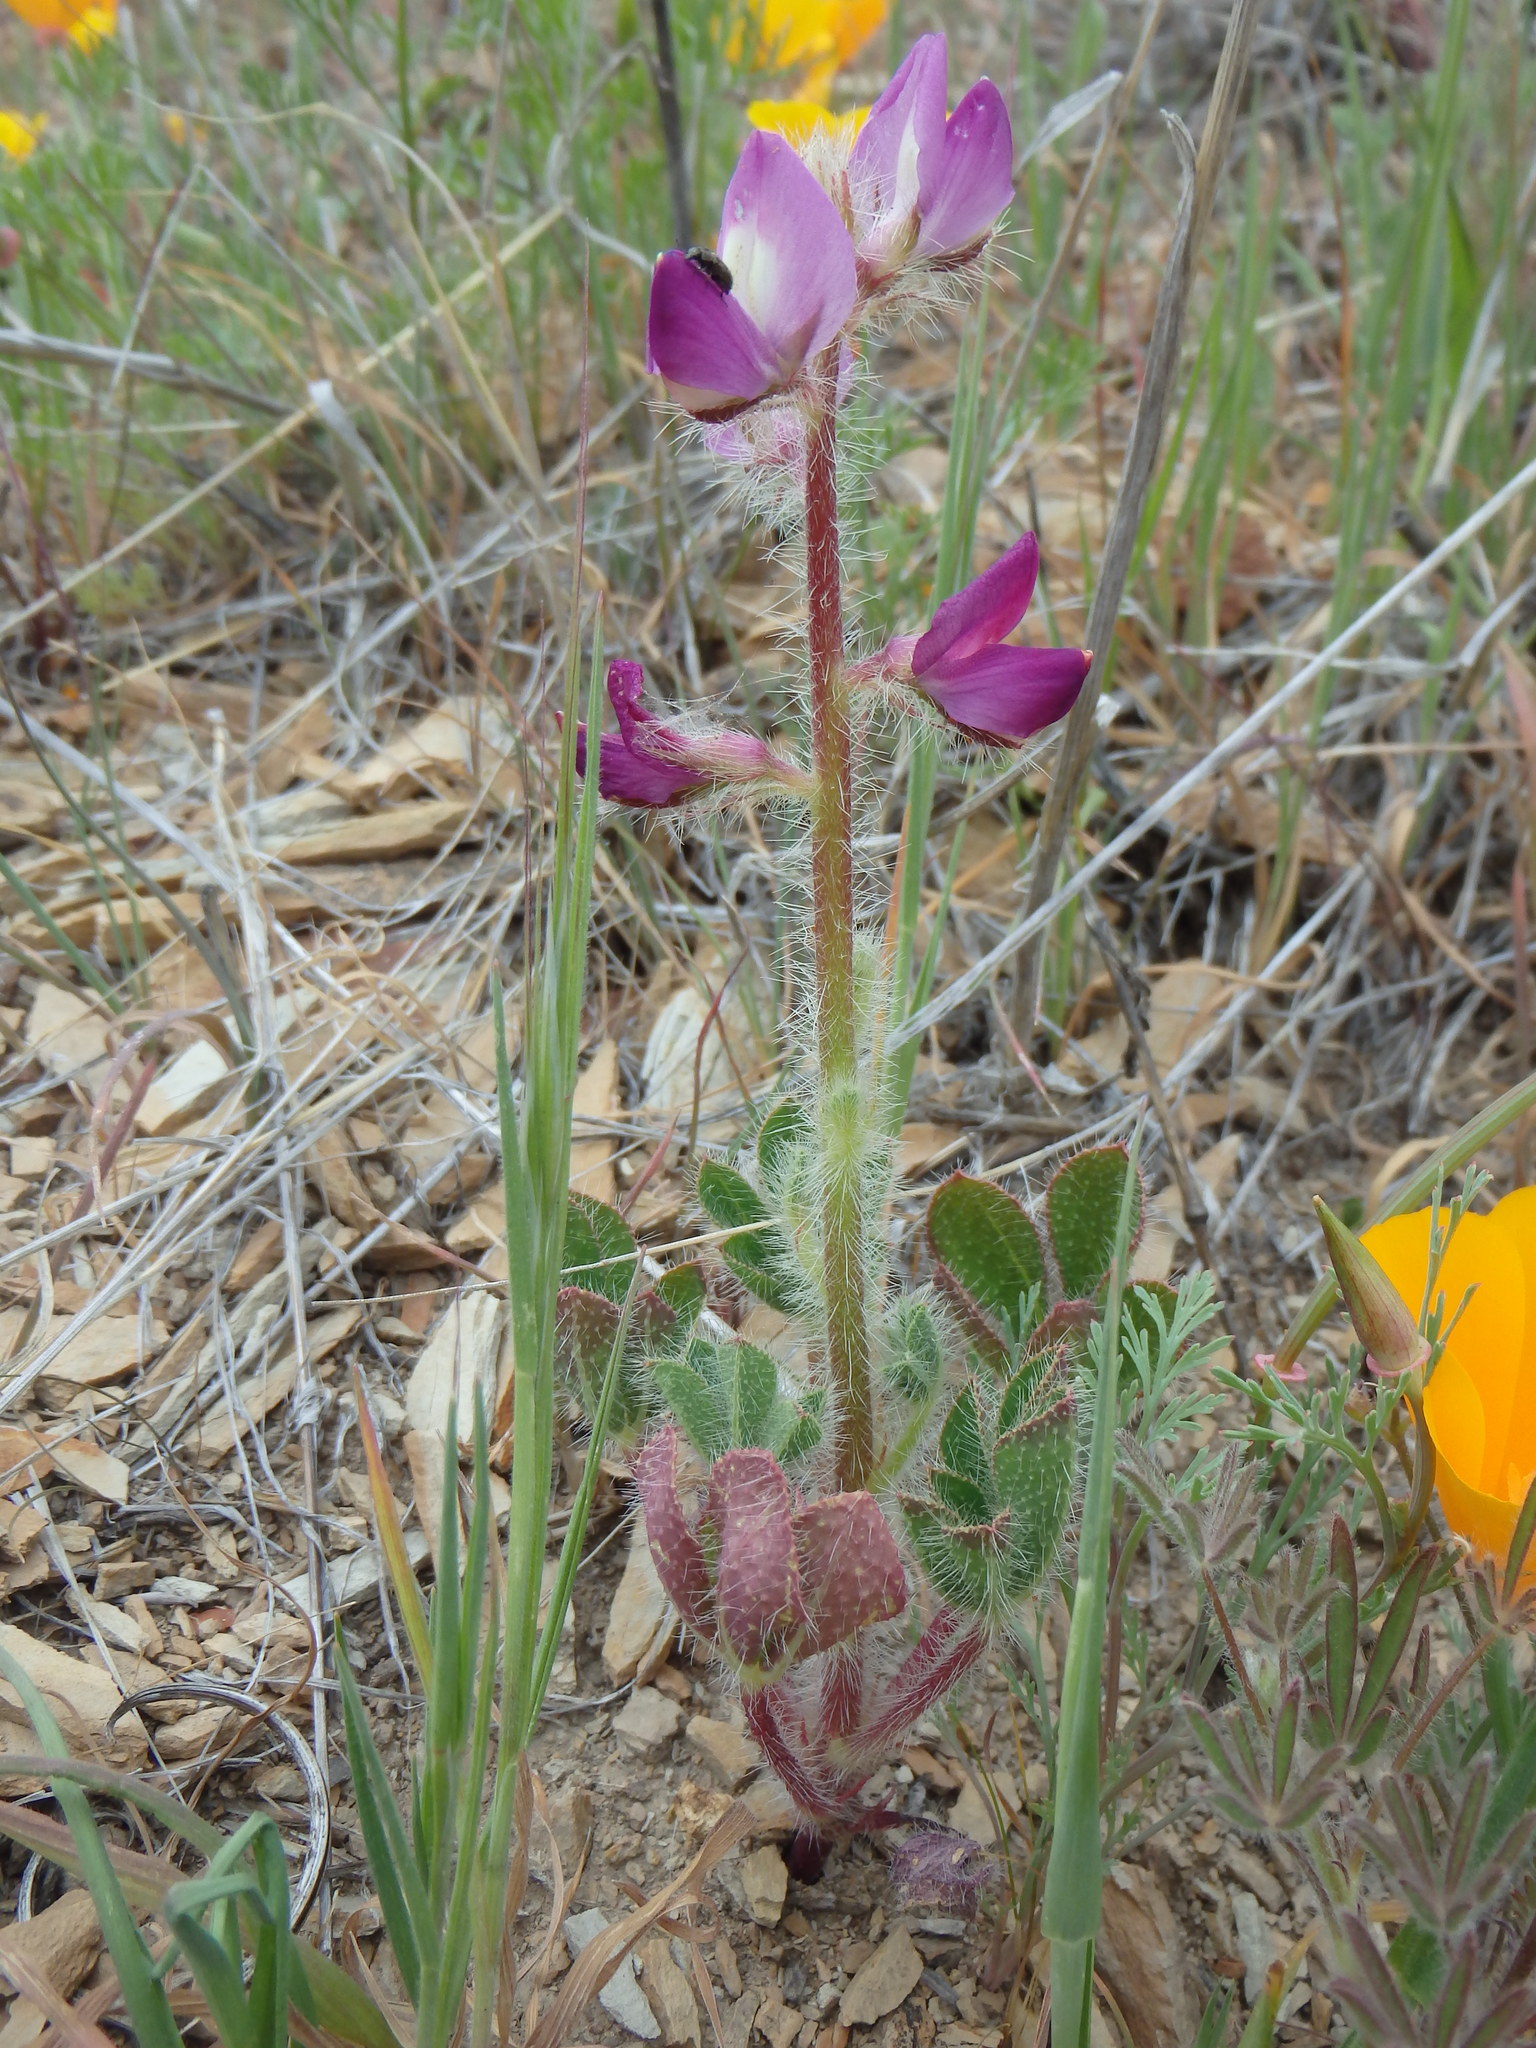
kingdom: Plantae
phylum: Tracheophyta
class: Magnoliopsida
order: Fabales
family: Fabaceae
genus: Lupinus
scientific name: Lupinus hirsutissimus
